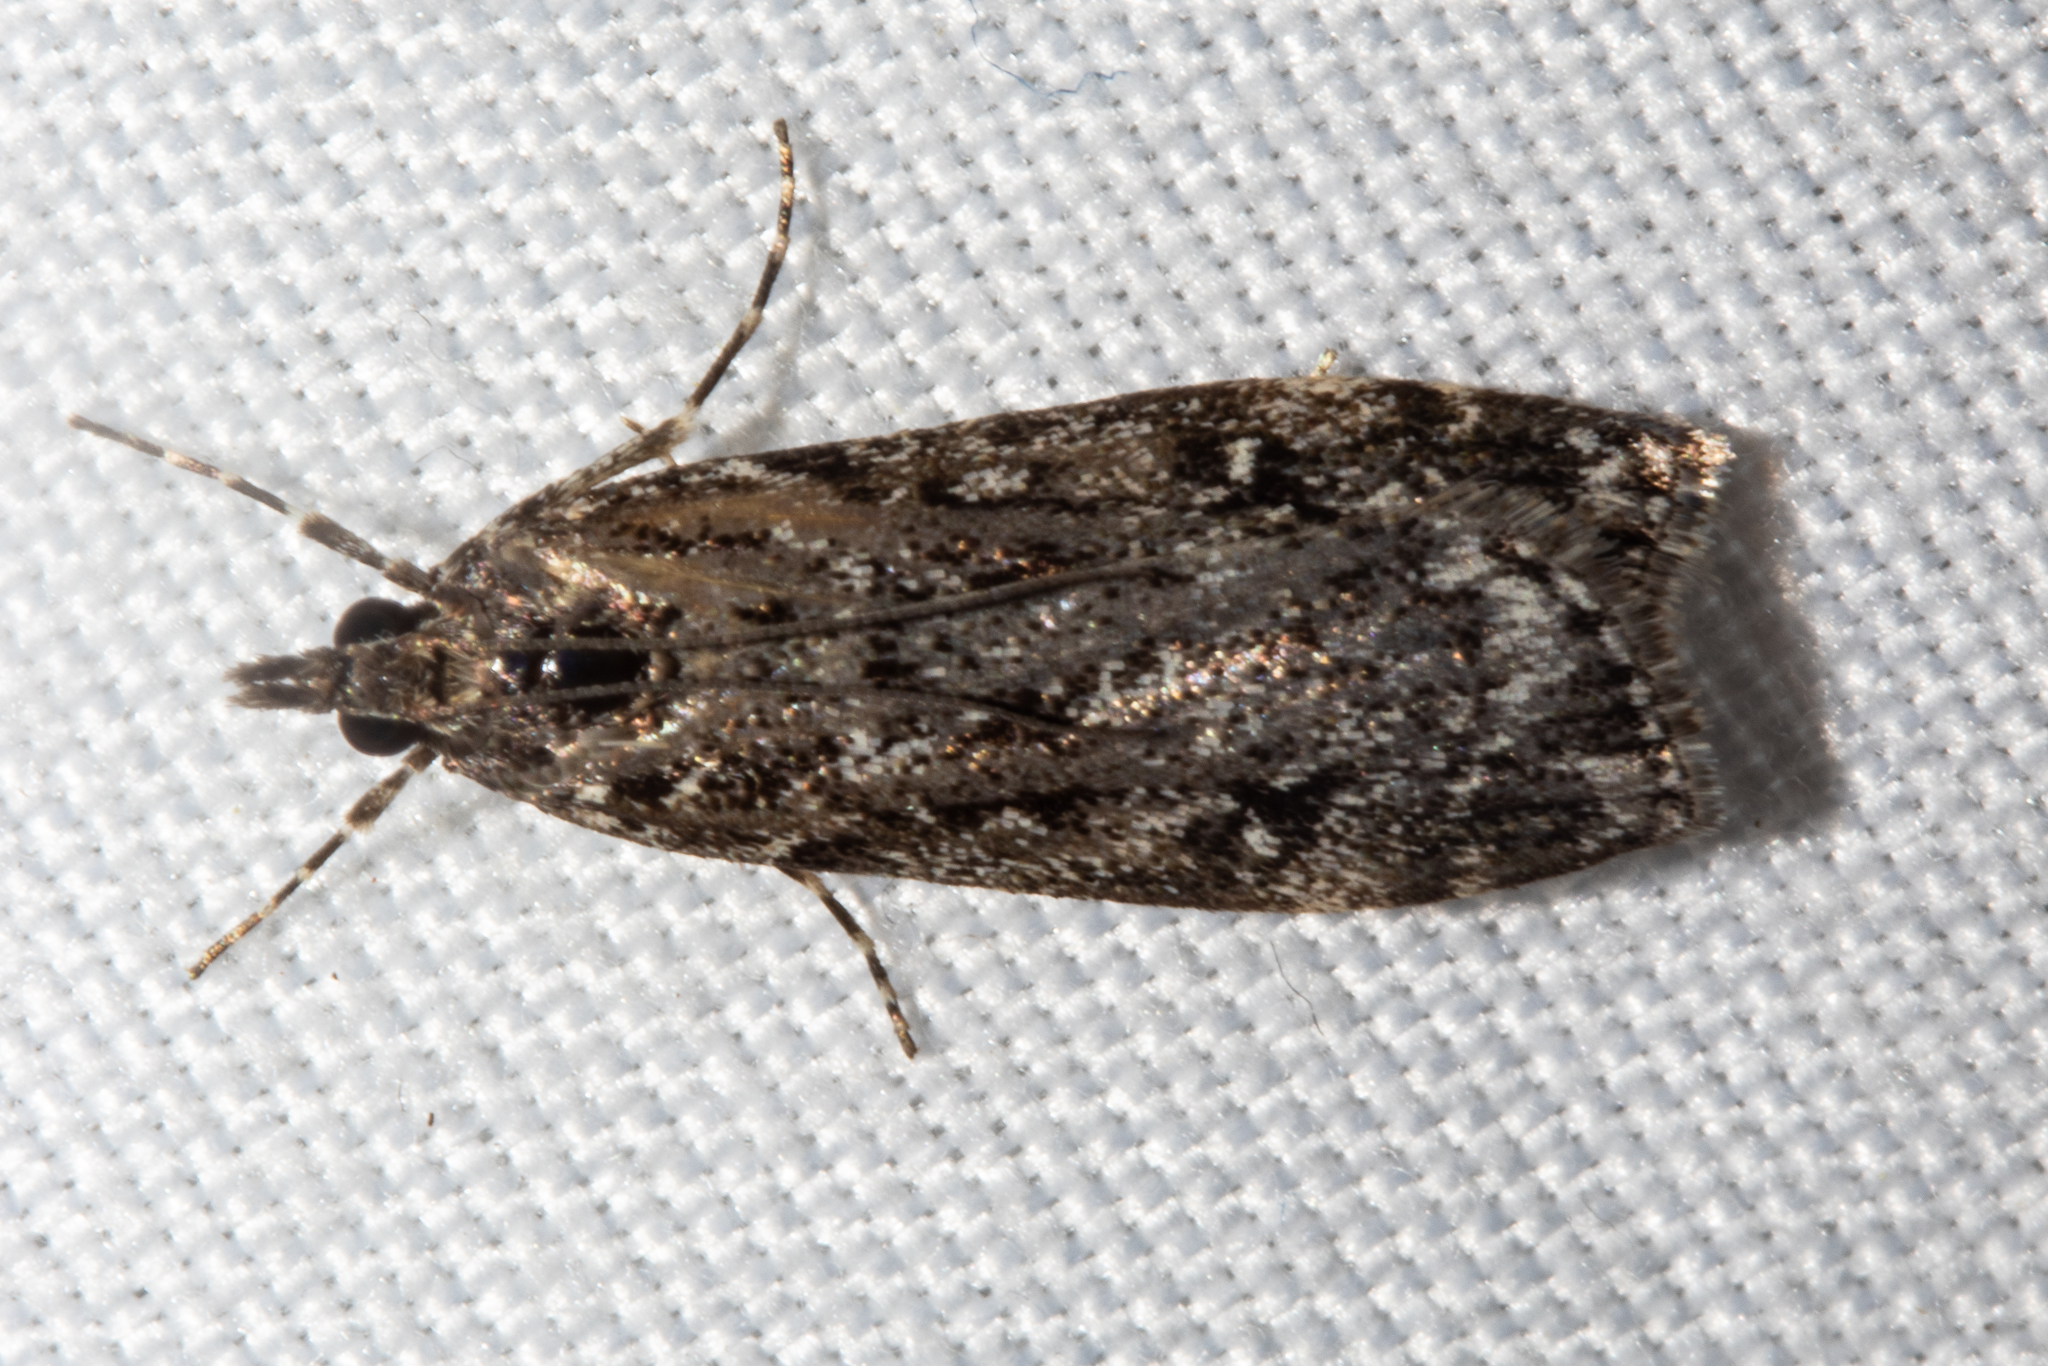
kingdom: Animalia
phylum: Arthropoda
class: Insecta
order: Lepidoptera
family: Crambidae
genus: Eudonia
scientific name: Eudonia philerga
